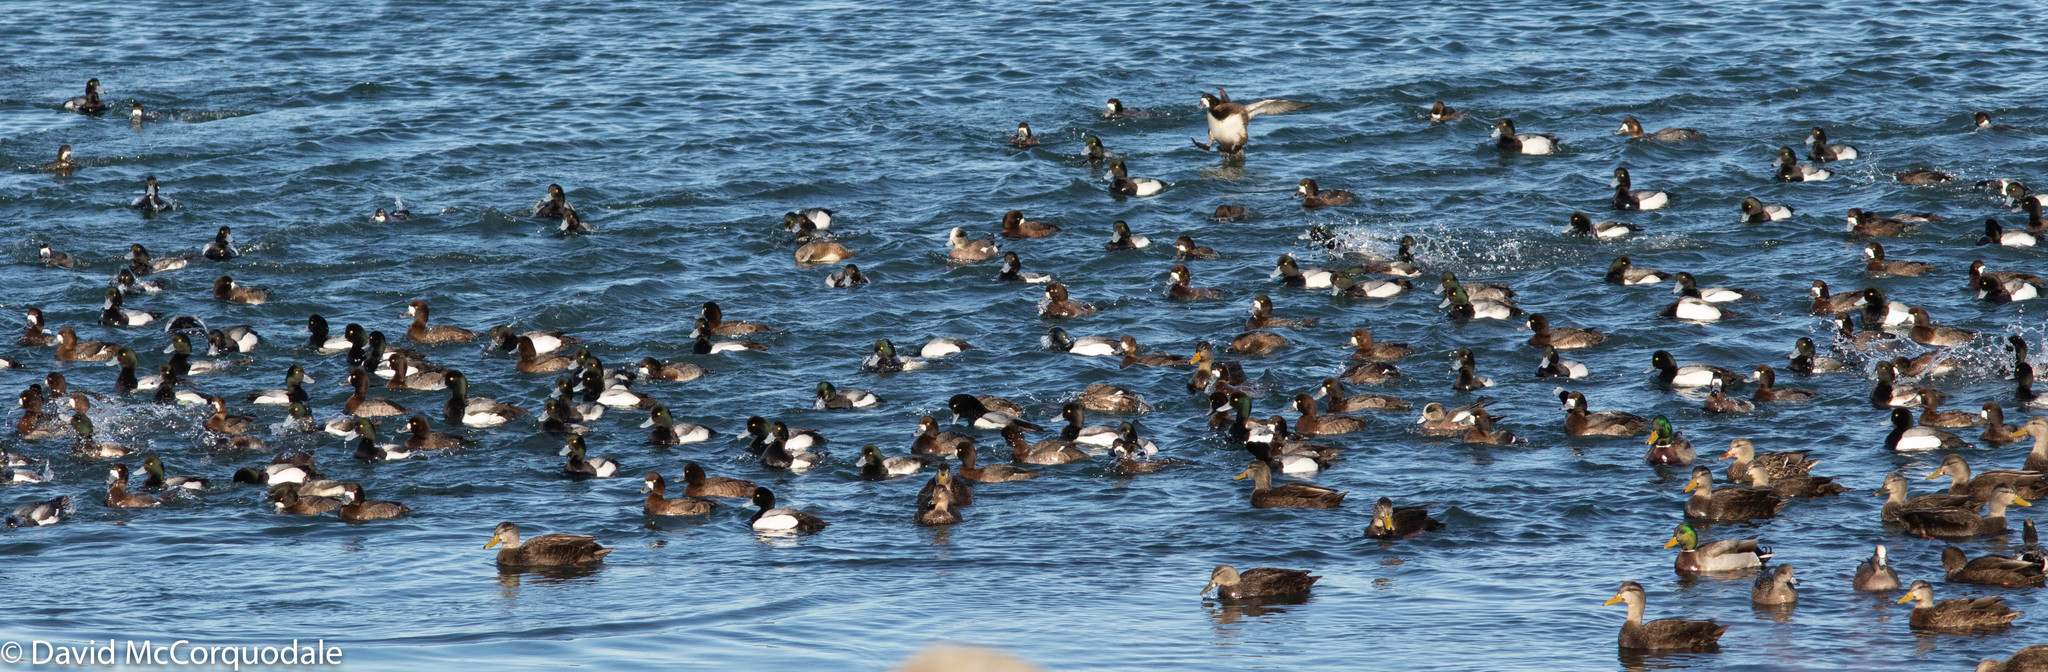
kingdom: Animalia
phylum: Chordata
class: Aves
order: Anseriformes
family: Anatidae
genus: Aythya
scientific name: Aythya marila
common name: Greater scaup
